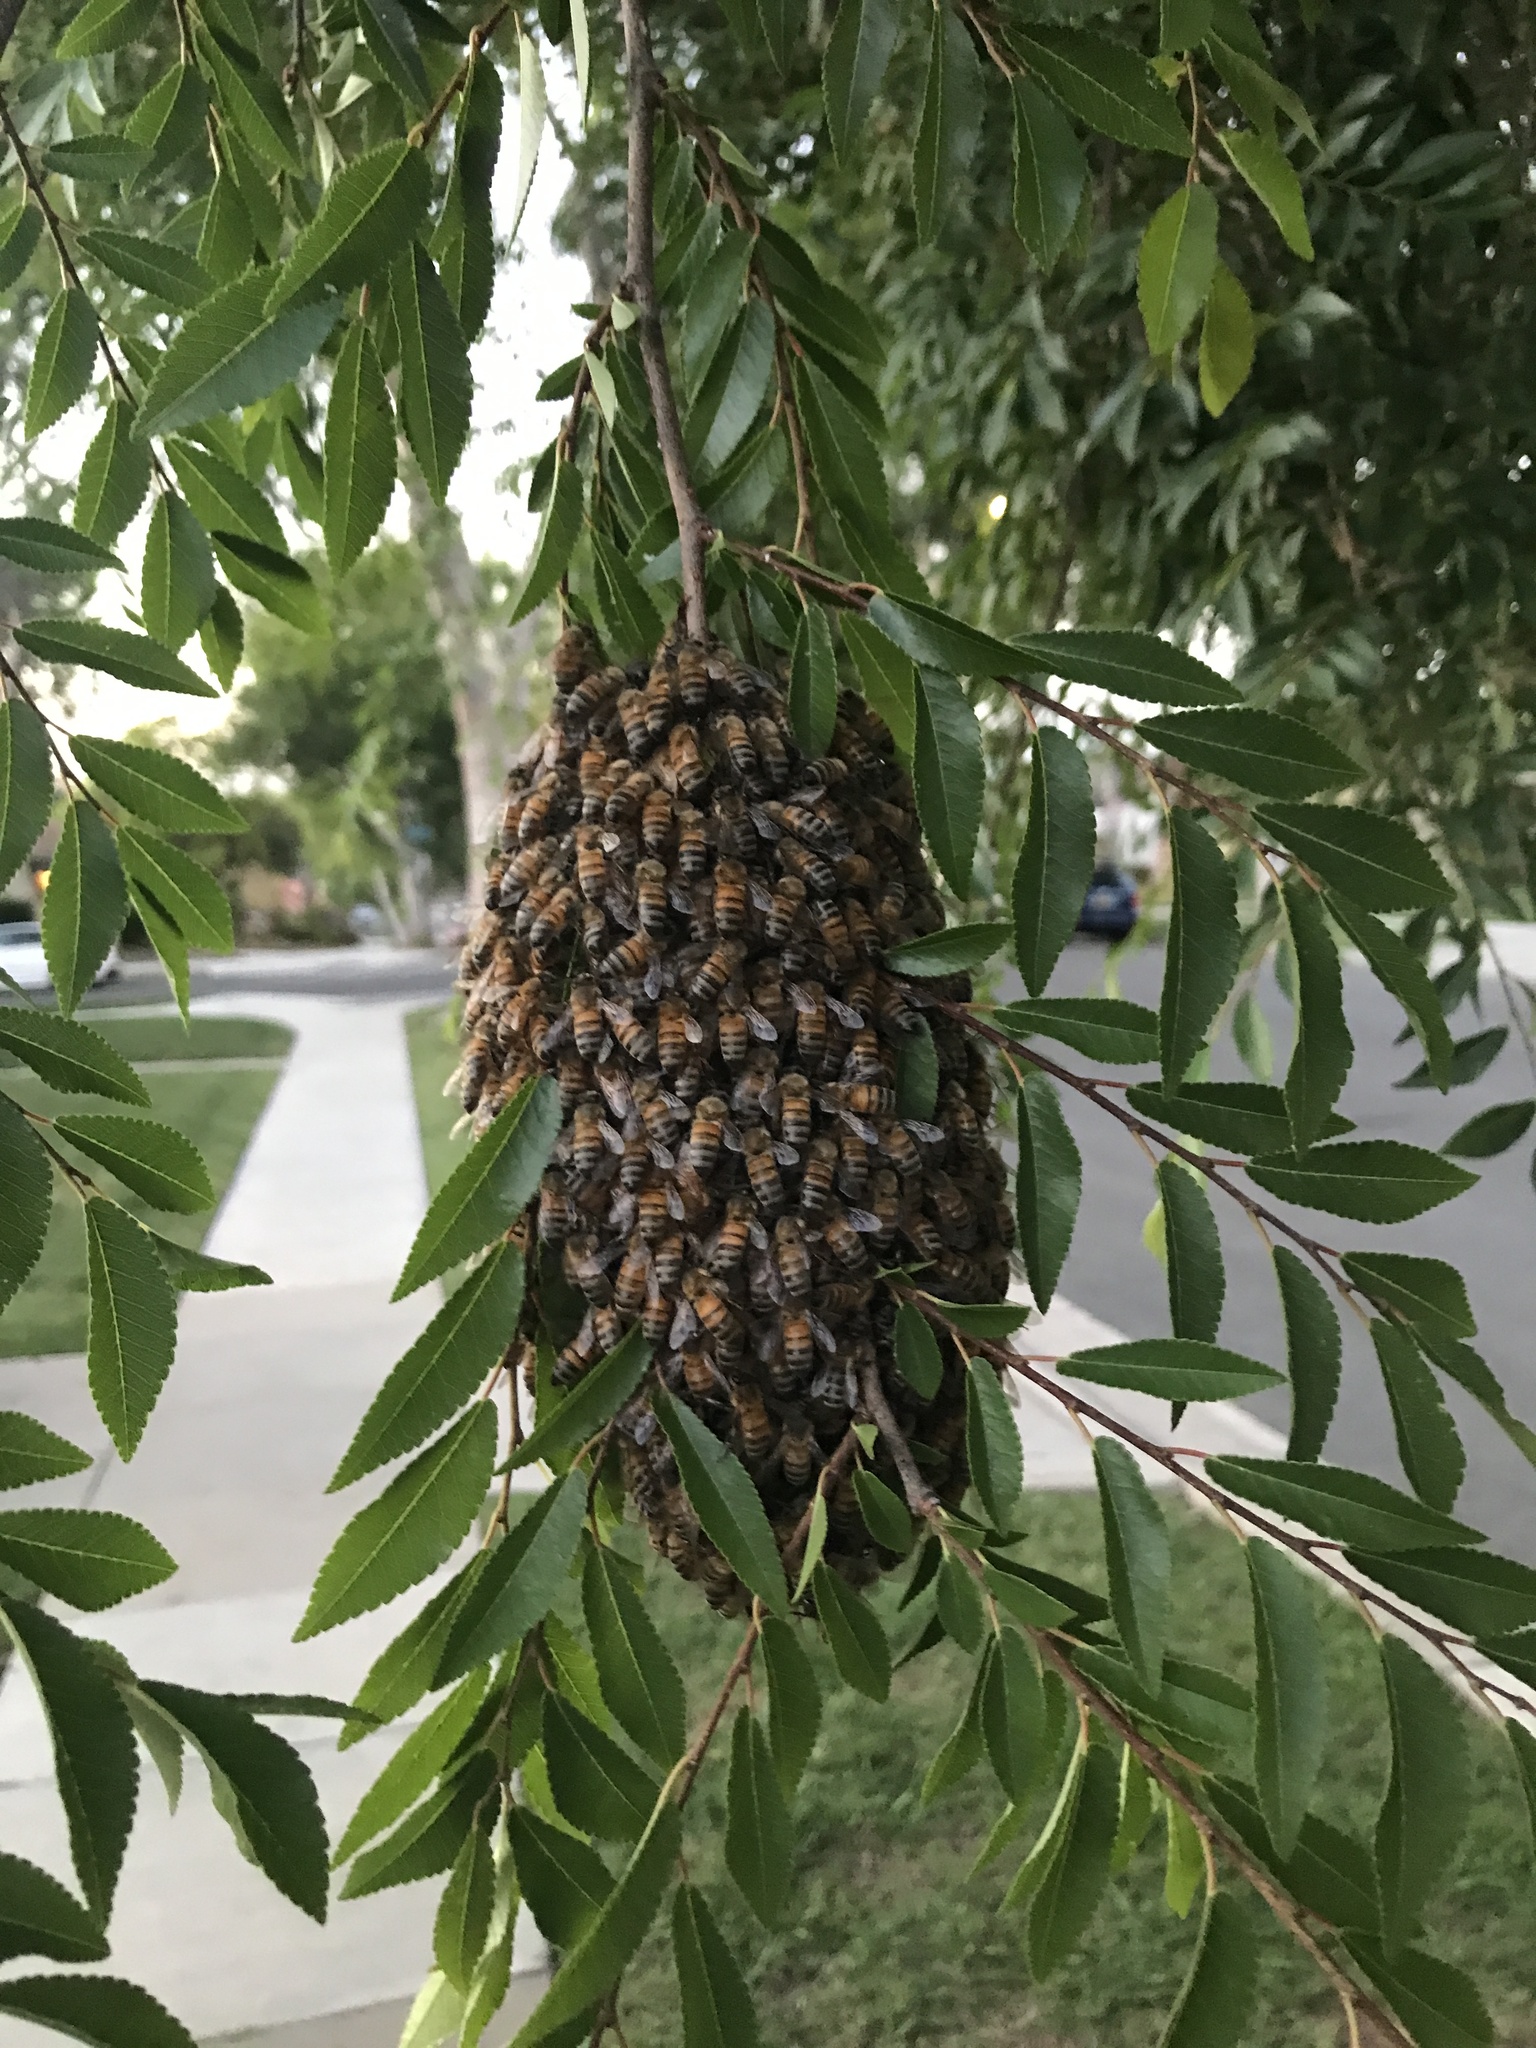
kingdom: Animalia
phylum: Arthropoda
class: Insecta
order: Hymenoptera
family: Apidae
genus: Apis
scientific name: Apis mellifera
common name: Honey bee
